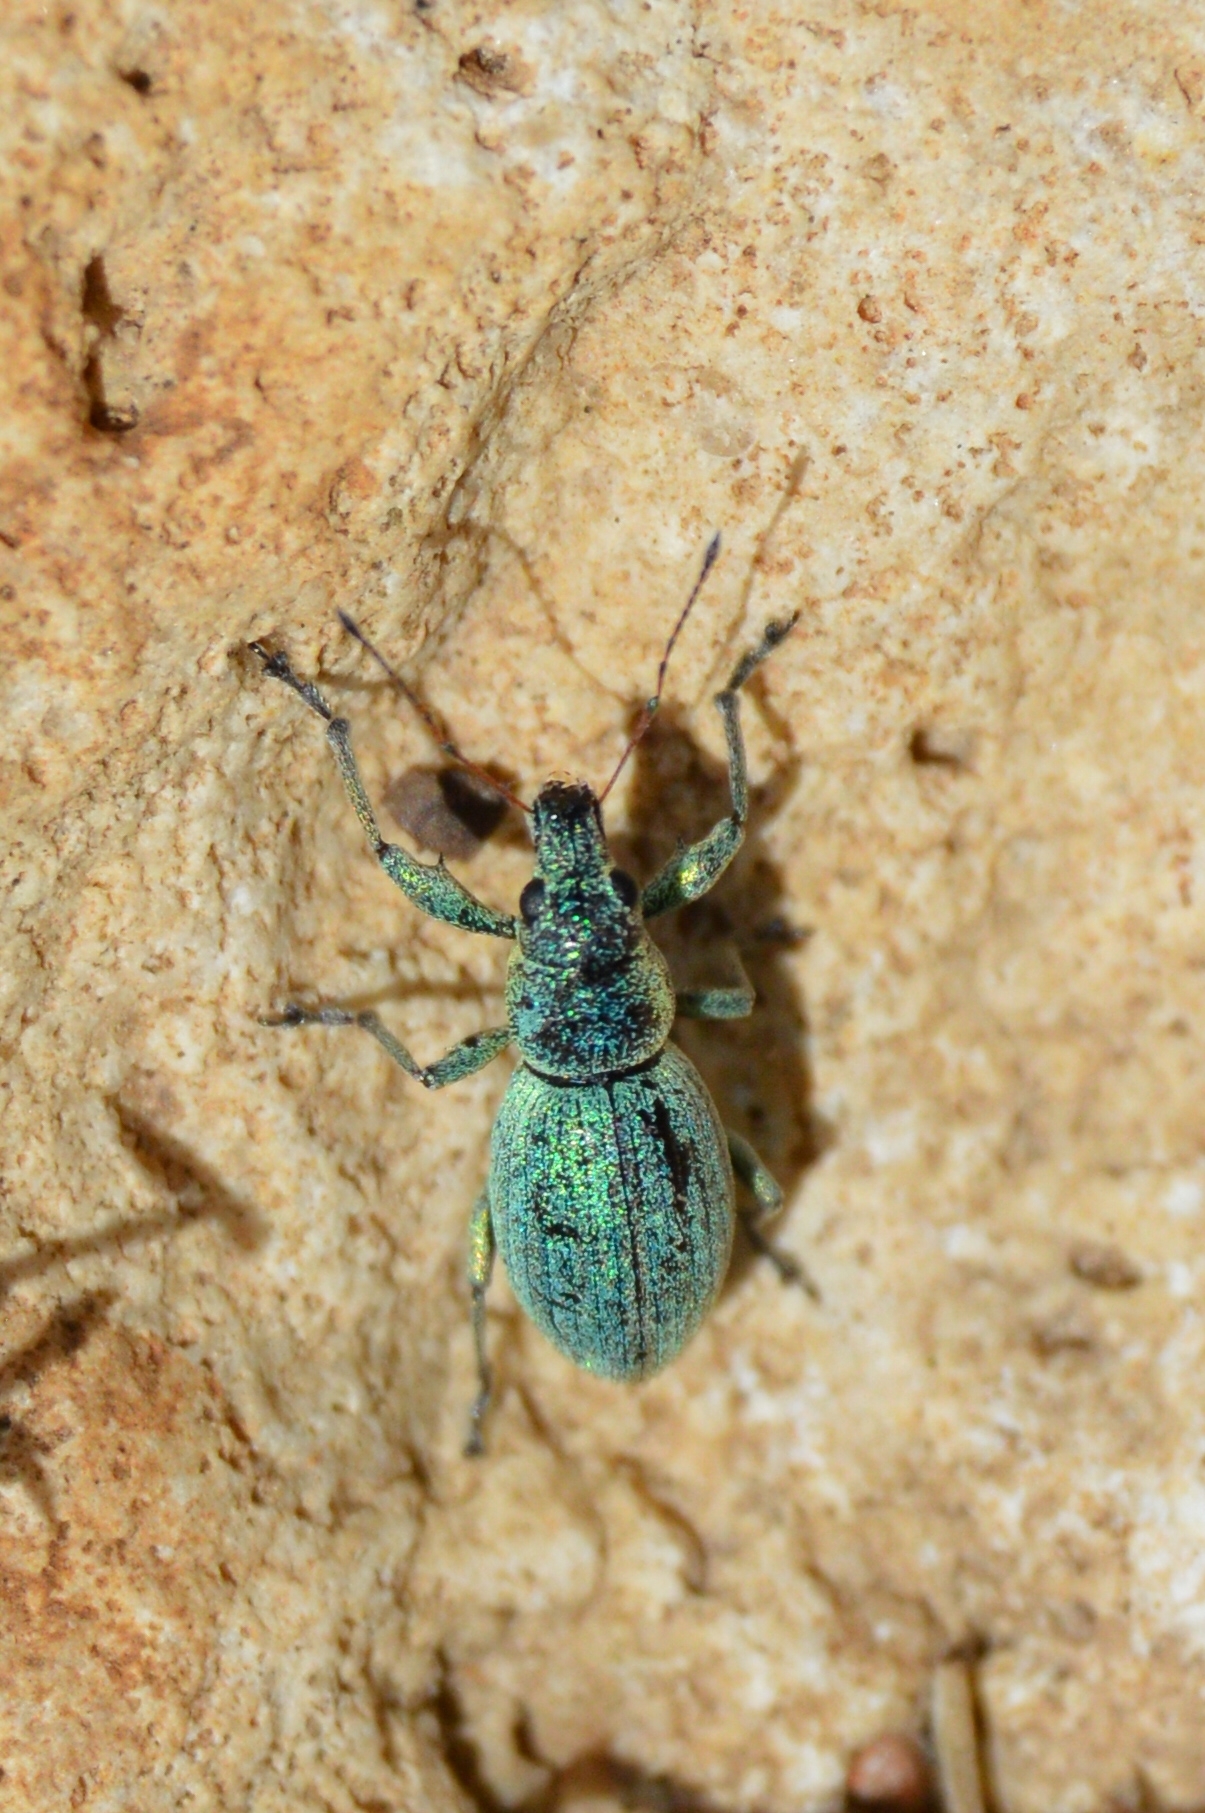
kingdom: Animalia
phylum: Arthropoda
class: Insecta
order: Coleoptera
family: Curculionidae
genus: Eusomus
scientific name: Eusomus ovulum
